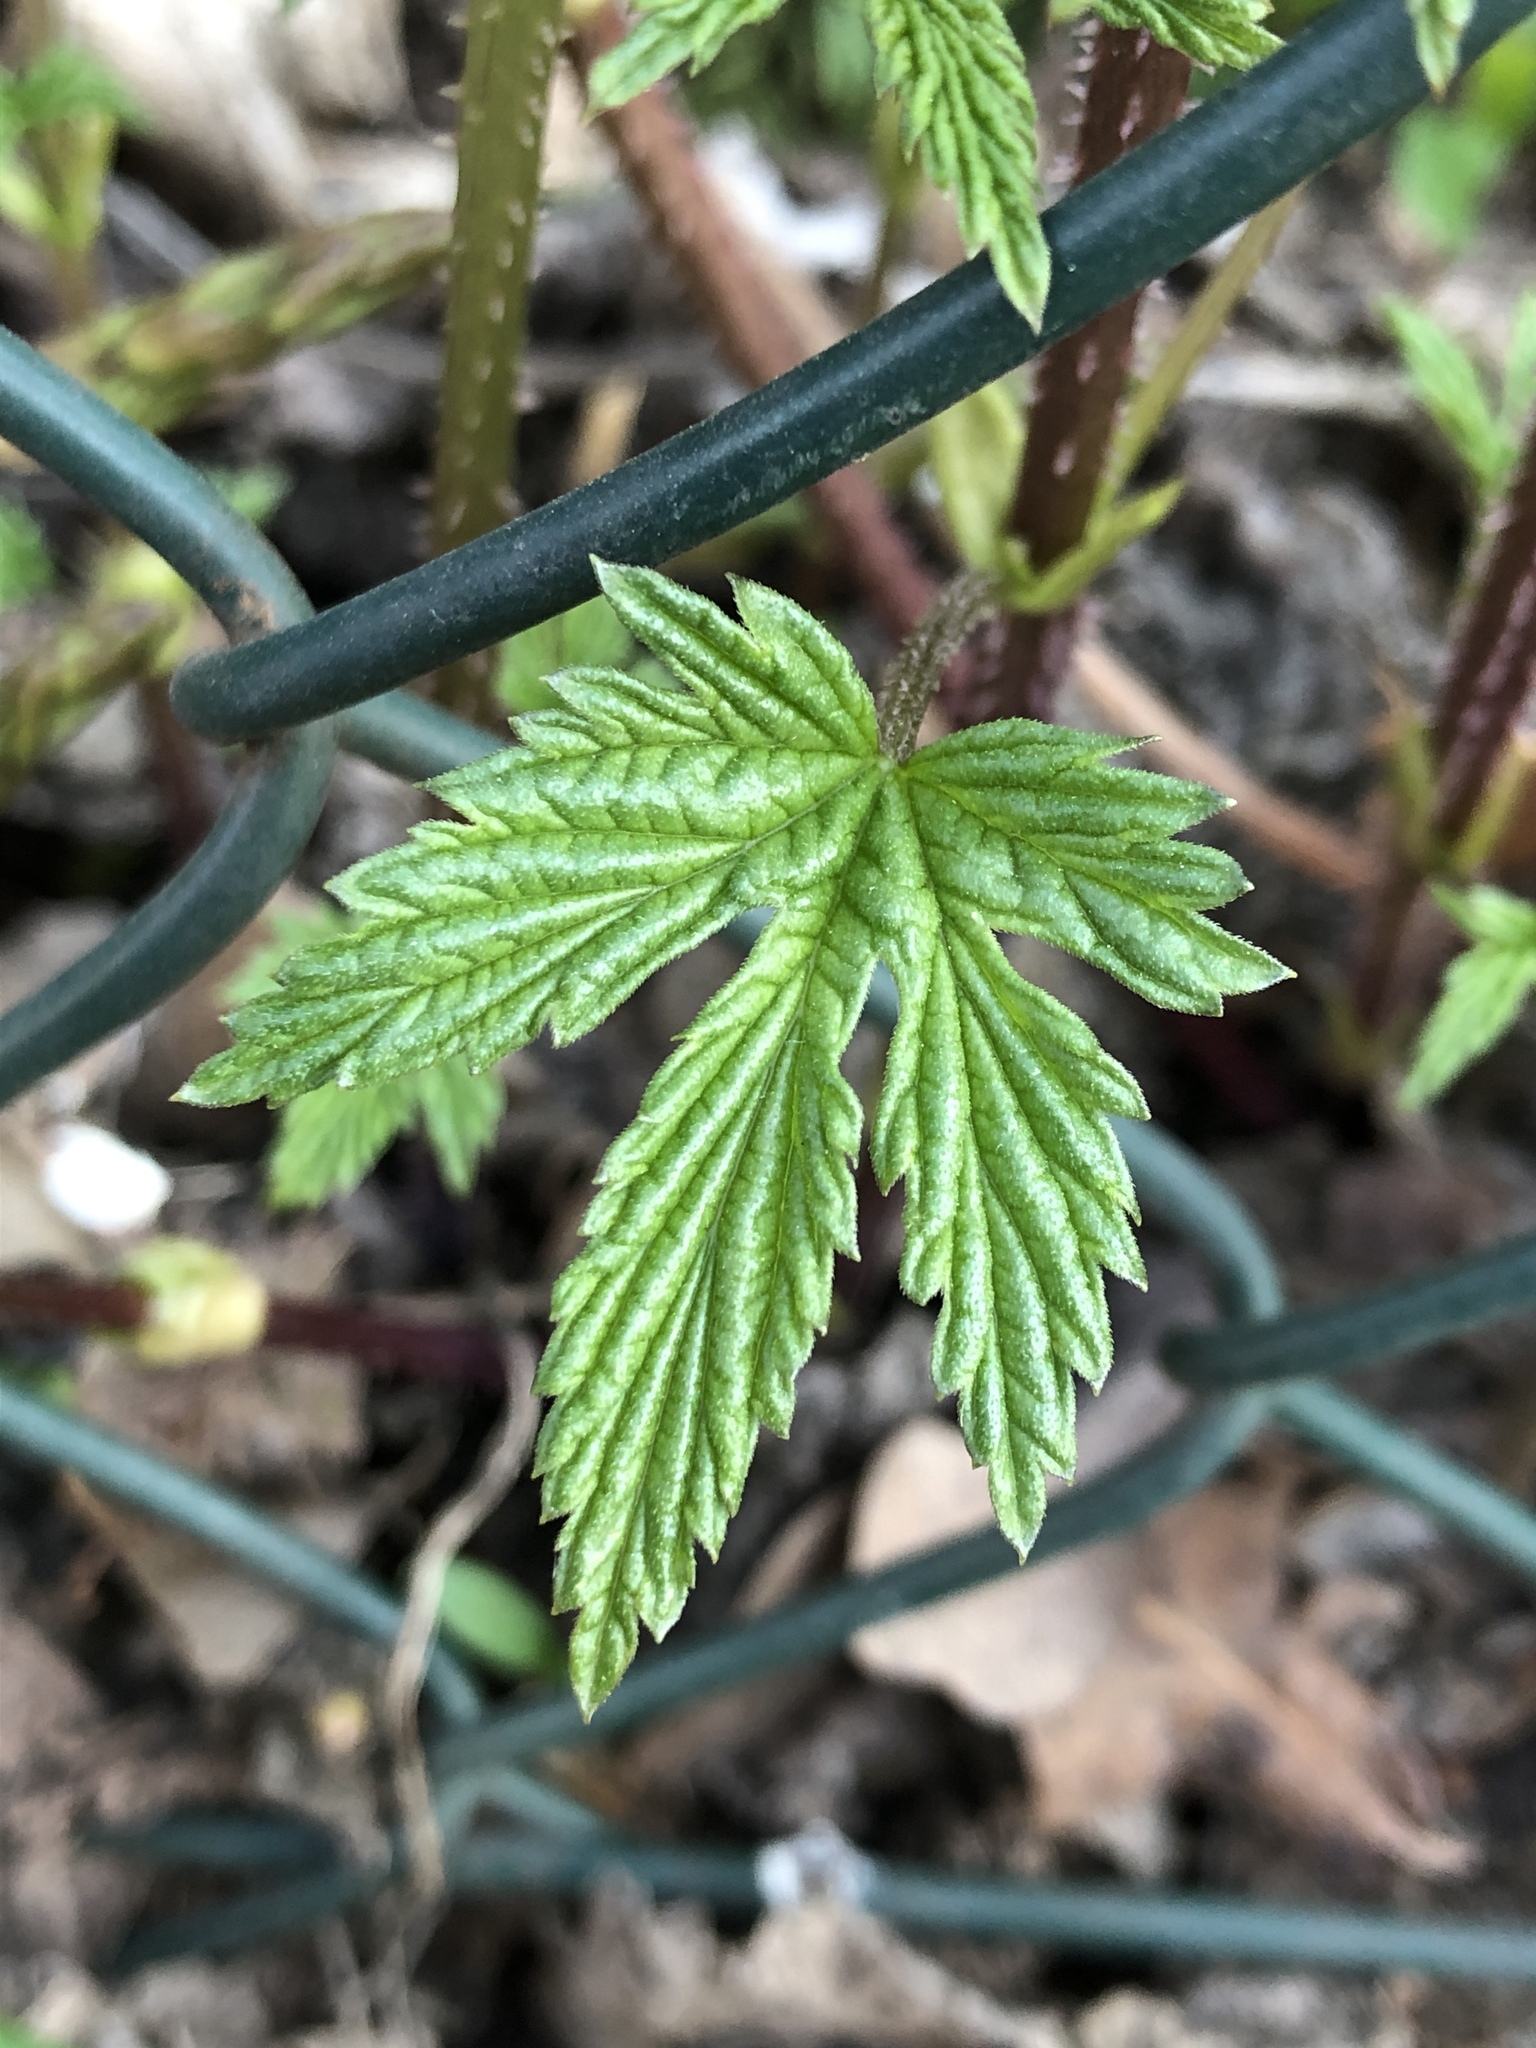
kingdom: Plantae
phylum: Tracheophyta
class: Magnoliopsida
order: Rosales
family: Cannabaceae
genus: Humulus
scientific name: Humulus lupulus
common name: Hop
